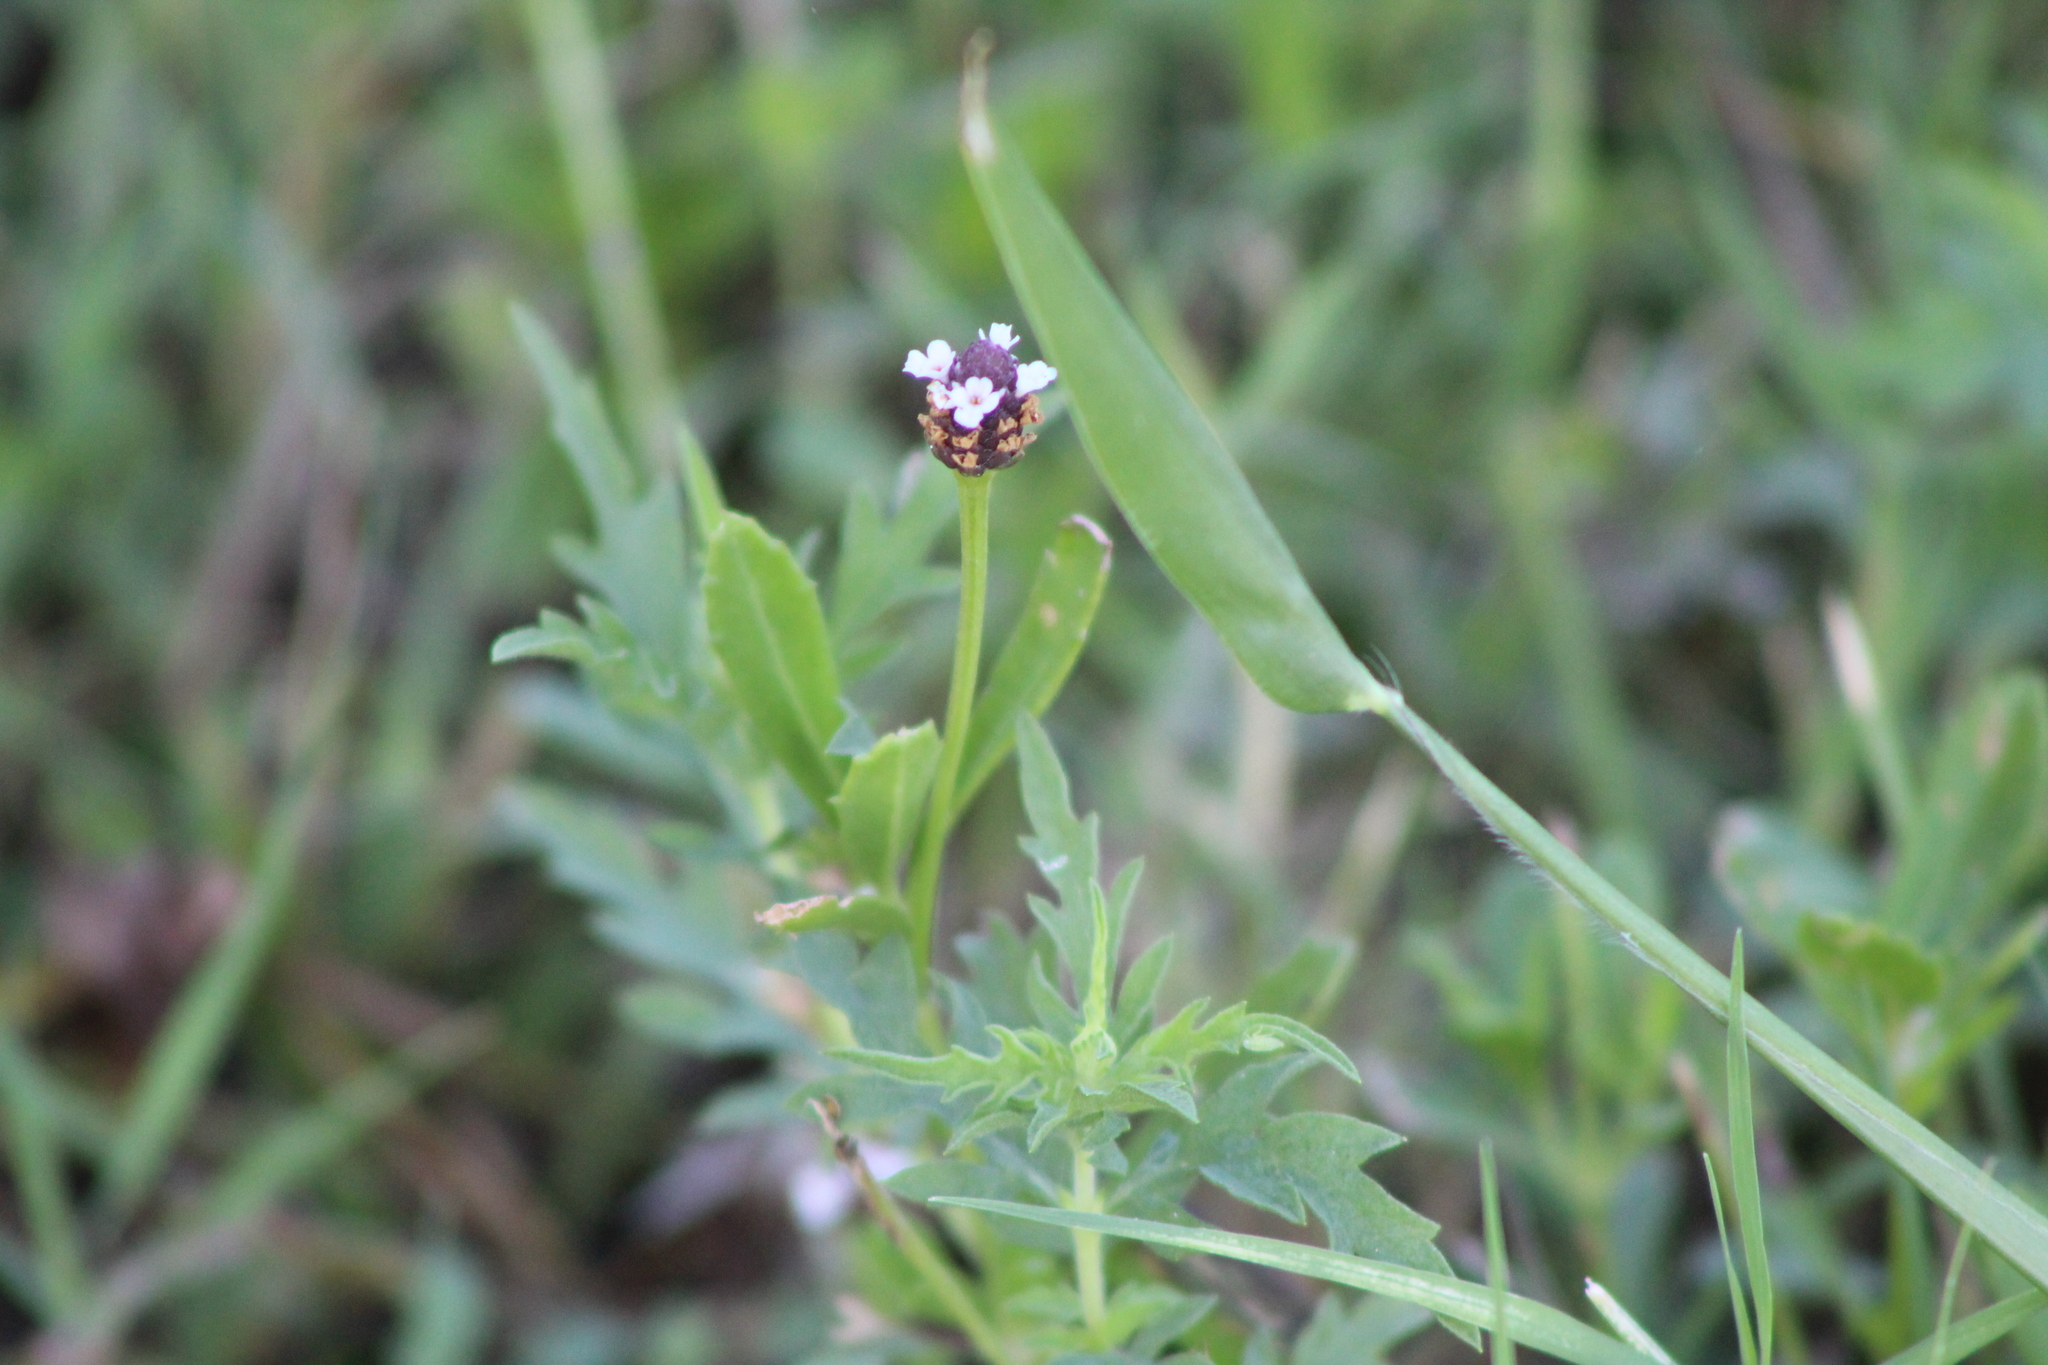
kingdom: Plantae
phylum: Tracheophyta
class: Magnoliopsida
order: Lamiales
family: Verbenaceae
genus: Phyla
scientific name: Phyla nodiflora
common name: Frogfruit
